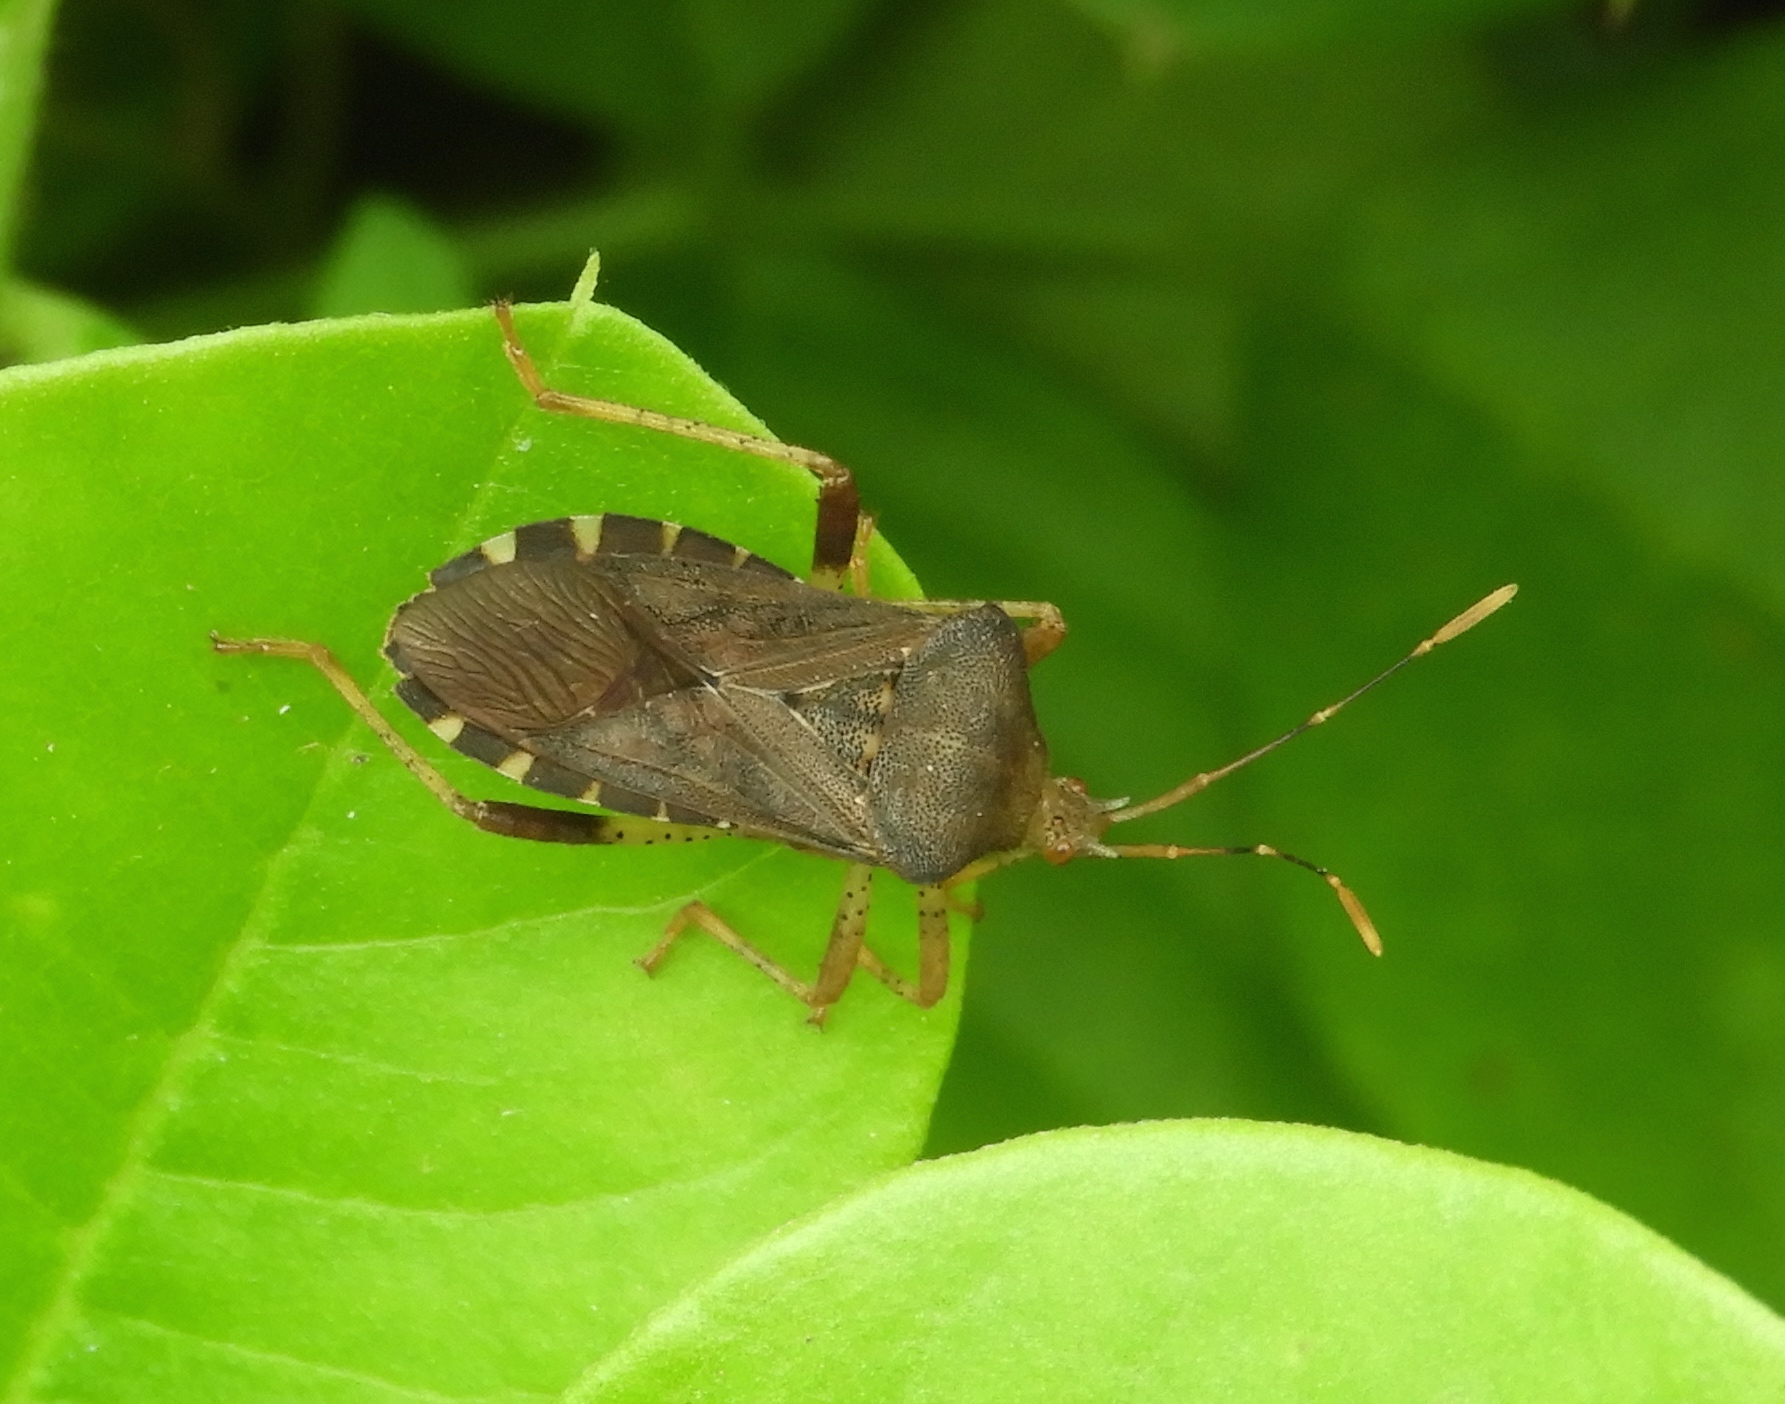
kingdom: Animalia
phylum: Arthropoda
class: Insecta
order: Hemiptera
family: Coreidae
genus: Anasa
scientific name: Anasa
